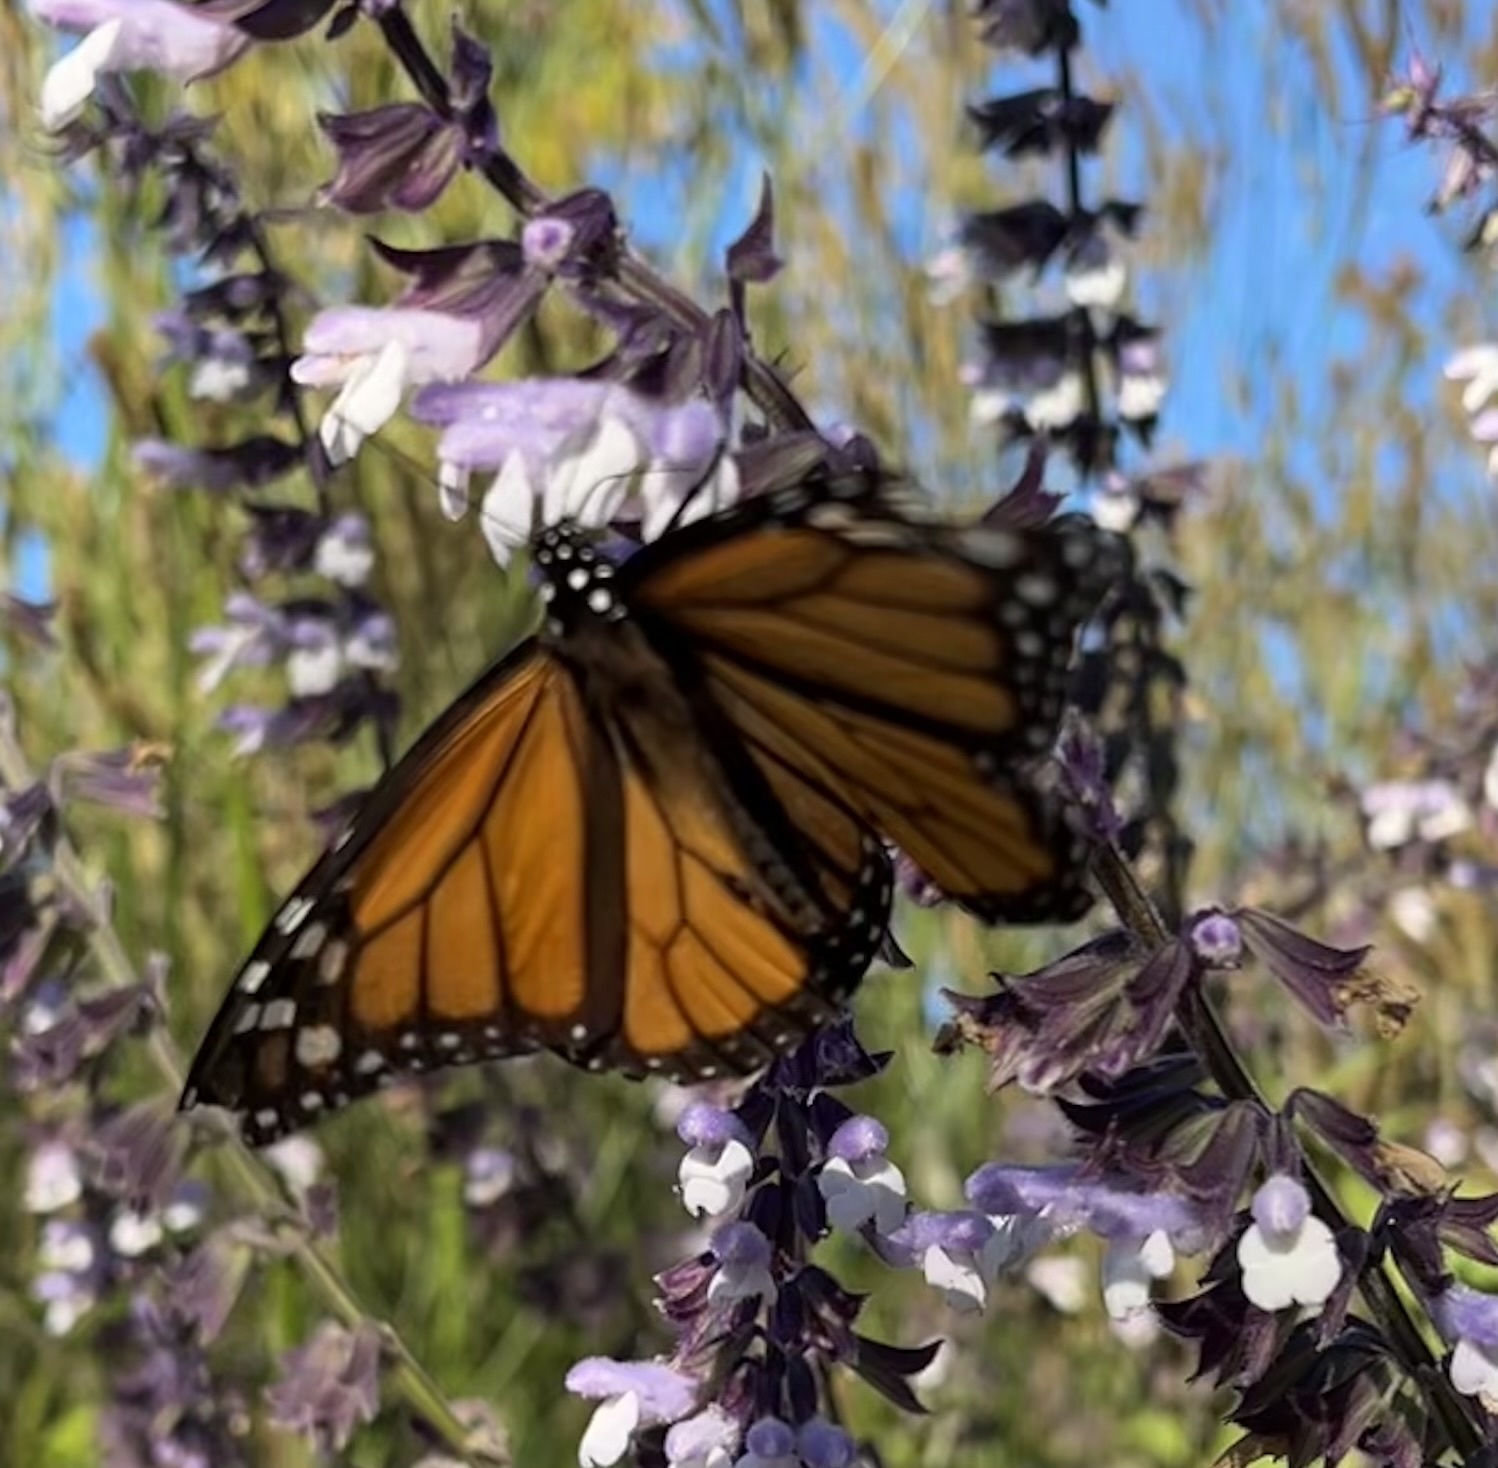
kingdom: Animalia
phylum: Arthropoda
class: Insecta
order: Lepidoptera
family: Nymphalidae
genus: Danaus
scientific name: Danaus plexippus
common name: Monarch
